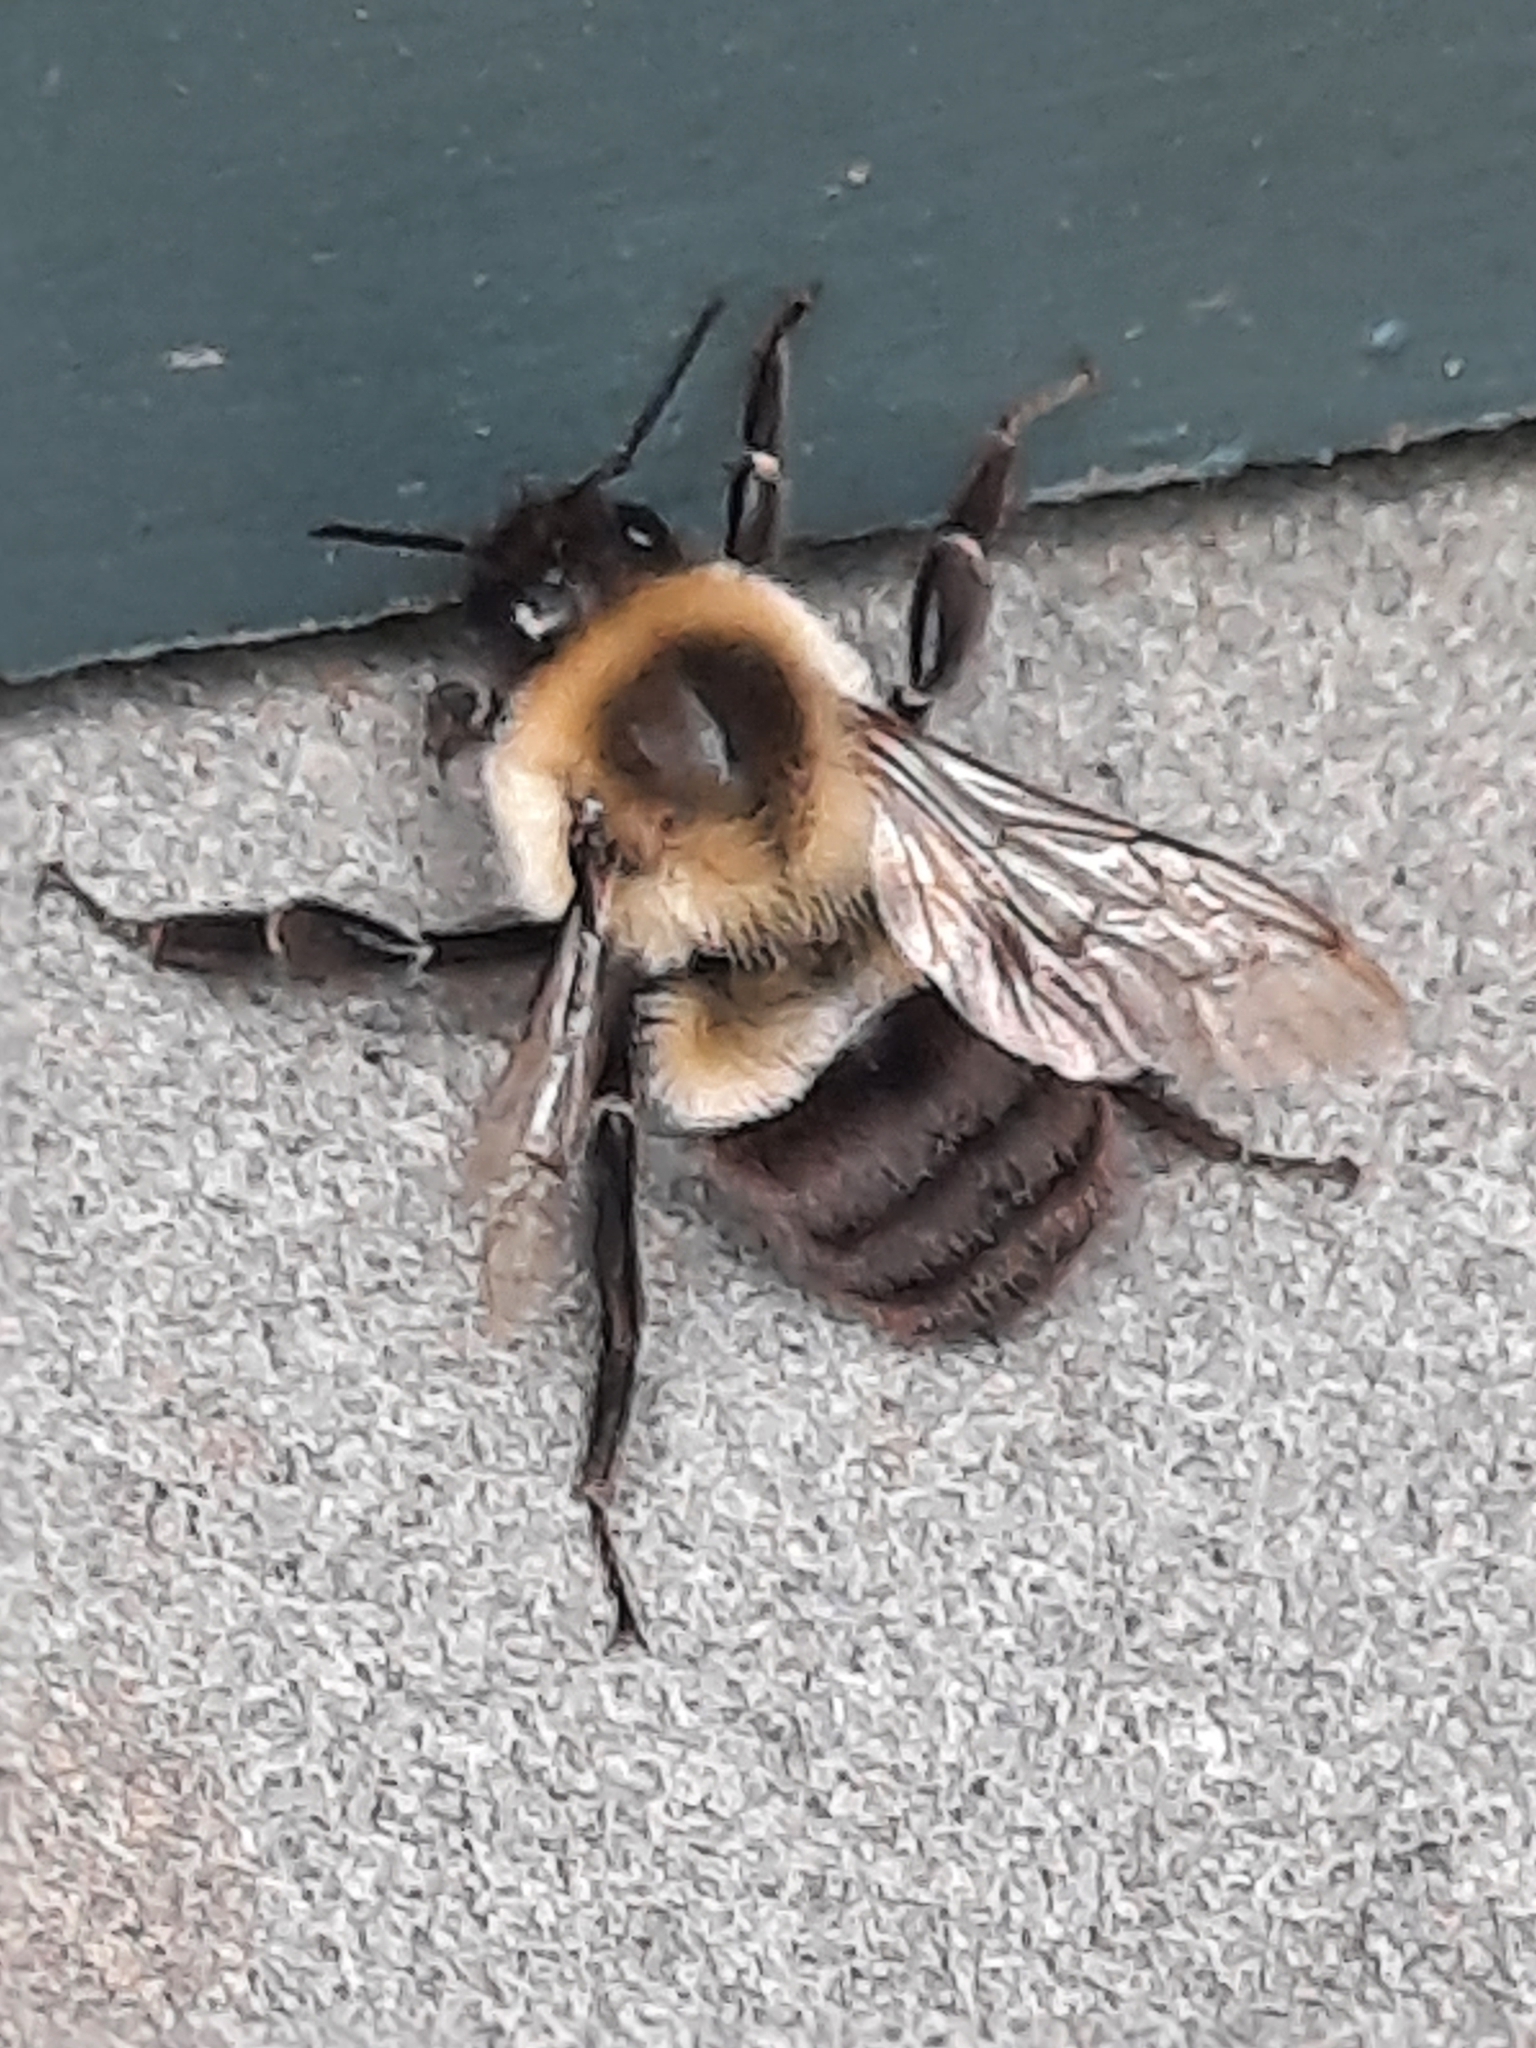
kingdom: Animalia
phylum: Arthropoda
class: Insecta
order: Hymenoptera
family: Apidae
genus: Bombus
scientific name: Bombus impatiens
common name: Common eastern bumble bee
